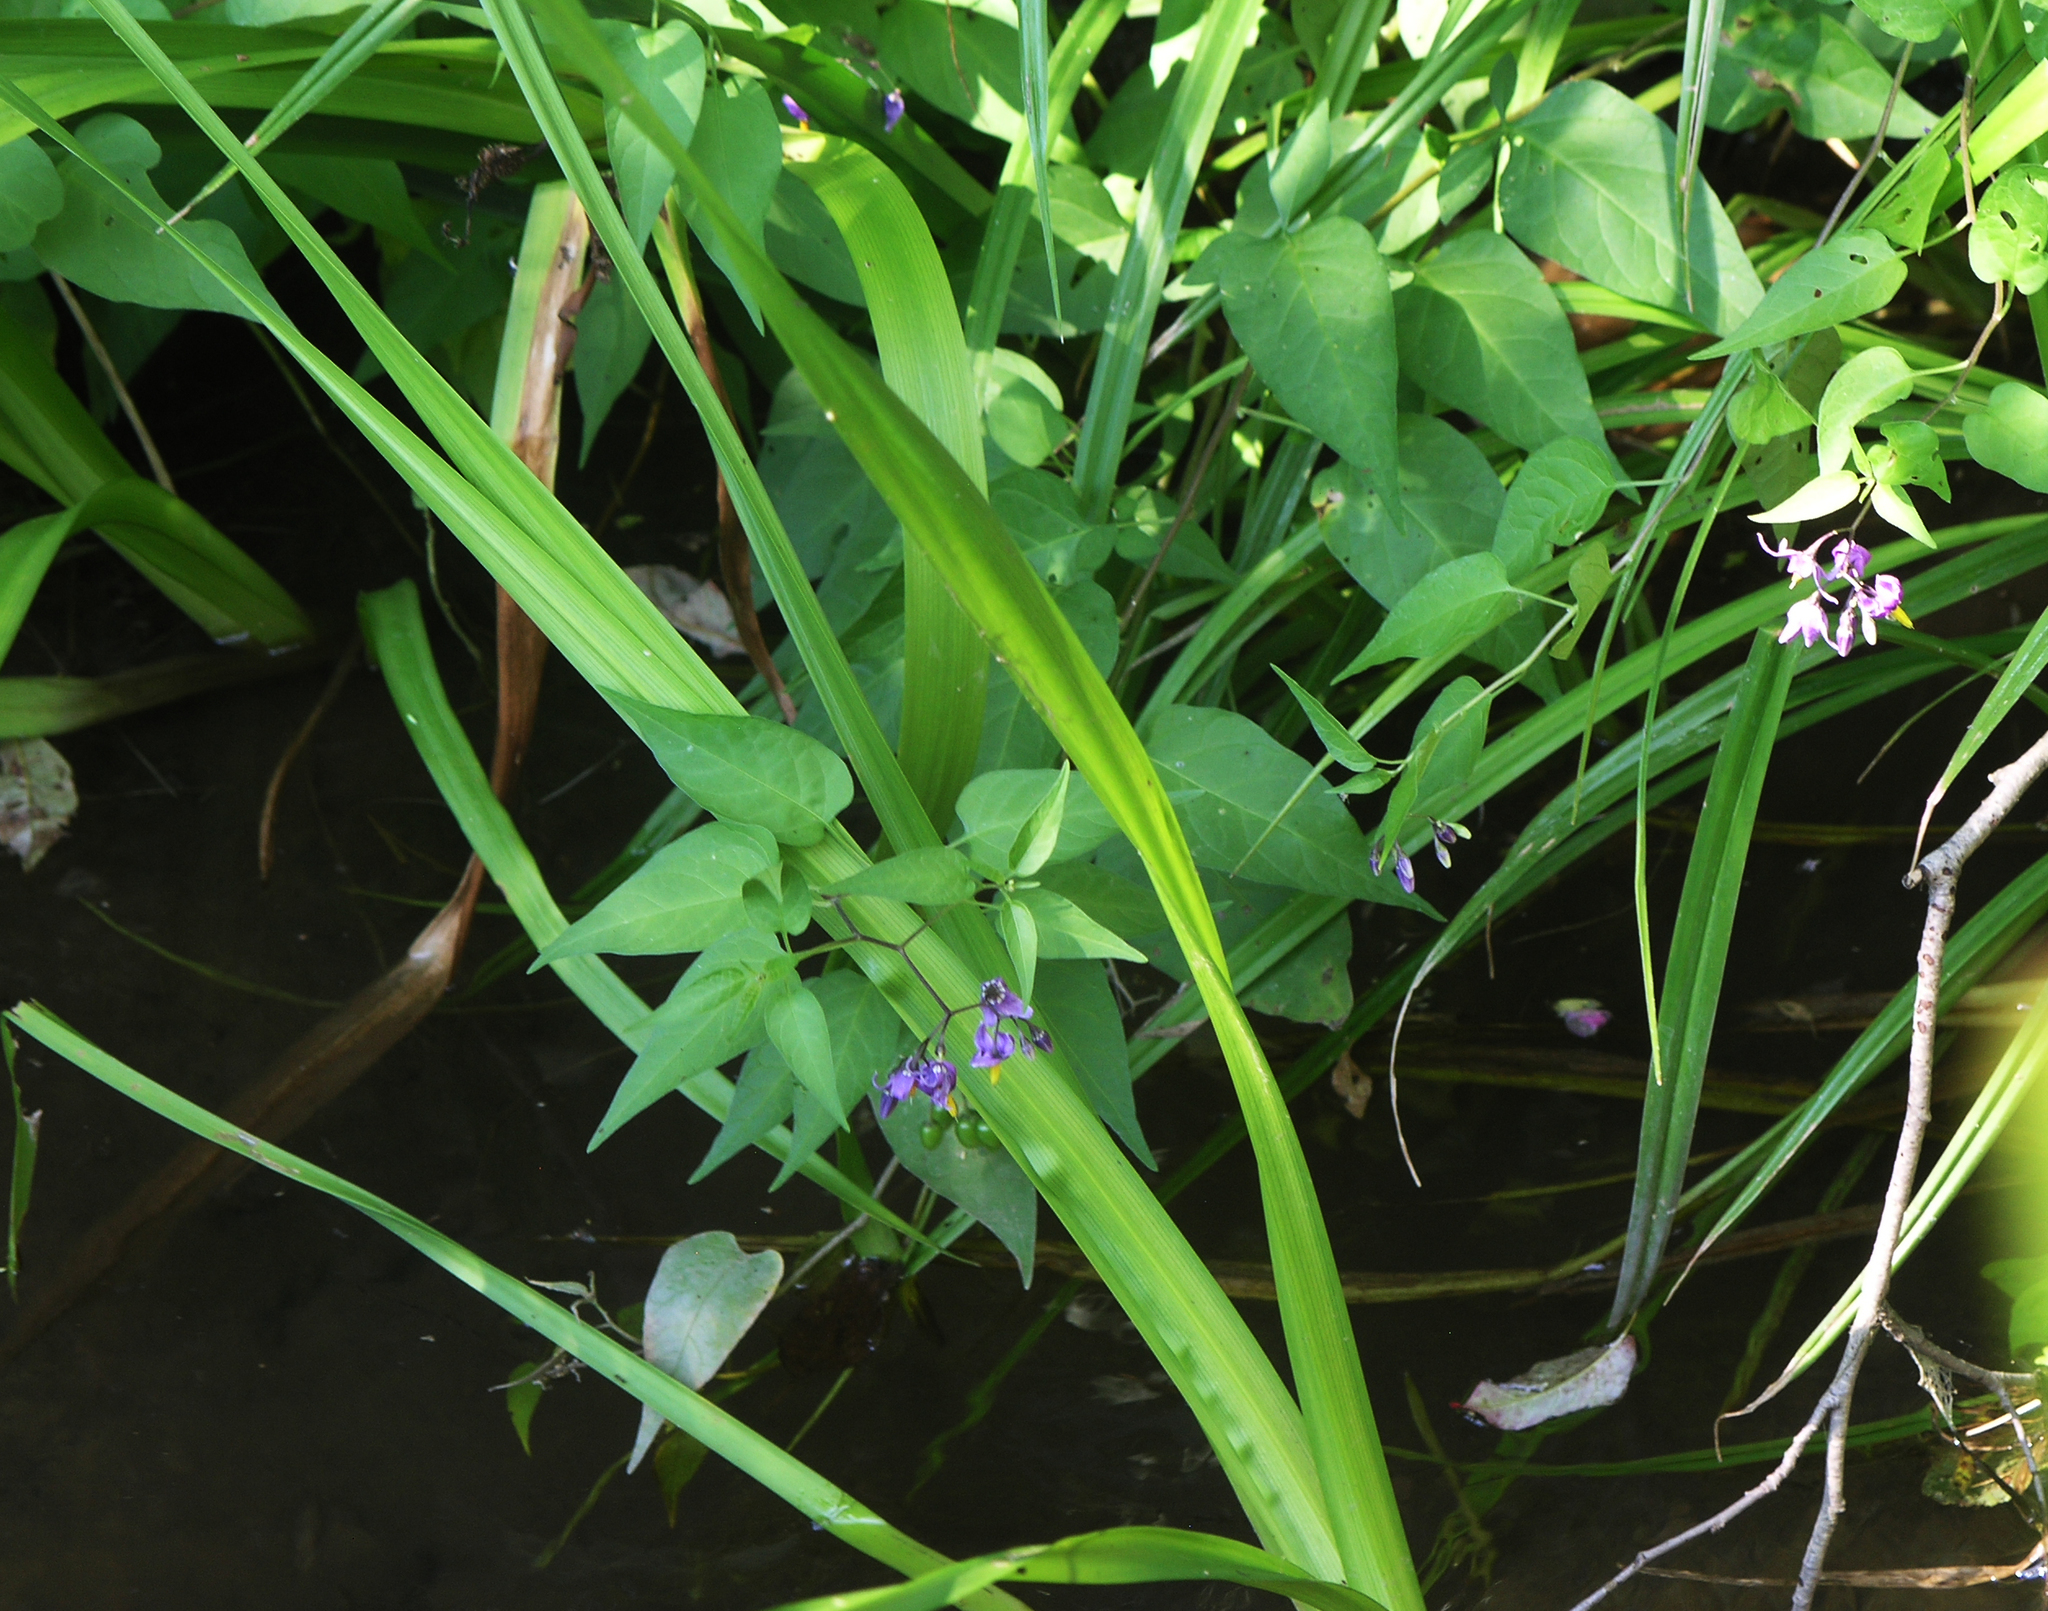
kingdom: Plantae
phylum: Tracheophyta
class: Magnoliopsida
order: Solanales
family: Solanaceae
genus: Solanum
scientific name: Solanum dulcamara
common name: Climbing nightshade
